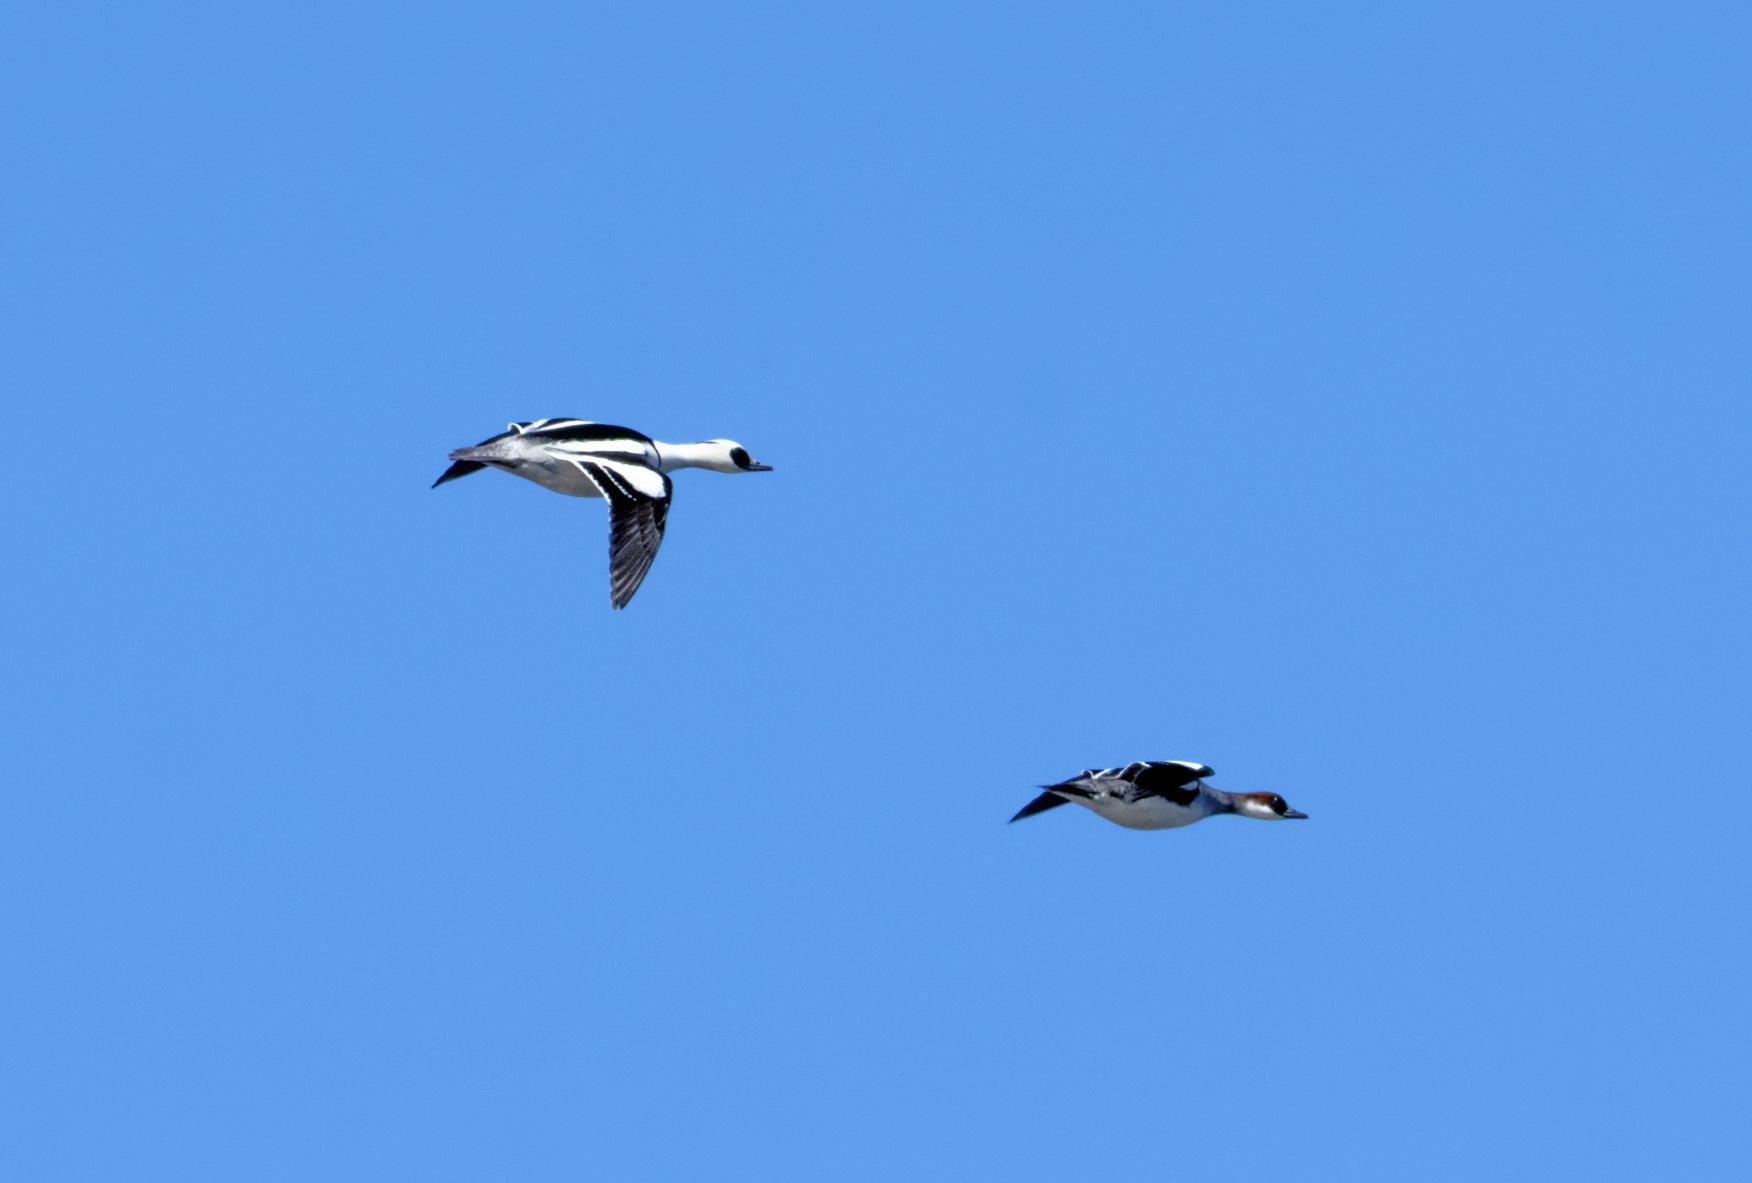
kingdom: Animalia
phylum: Chordata
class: Aves
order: Anseriformes
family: Anatidae
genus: Mergellus
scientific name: Mergellus albellus
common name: Smew
